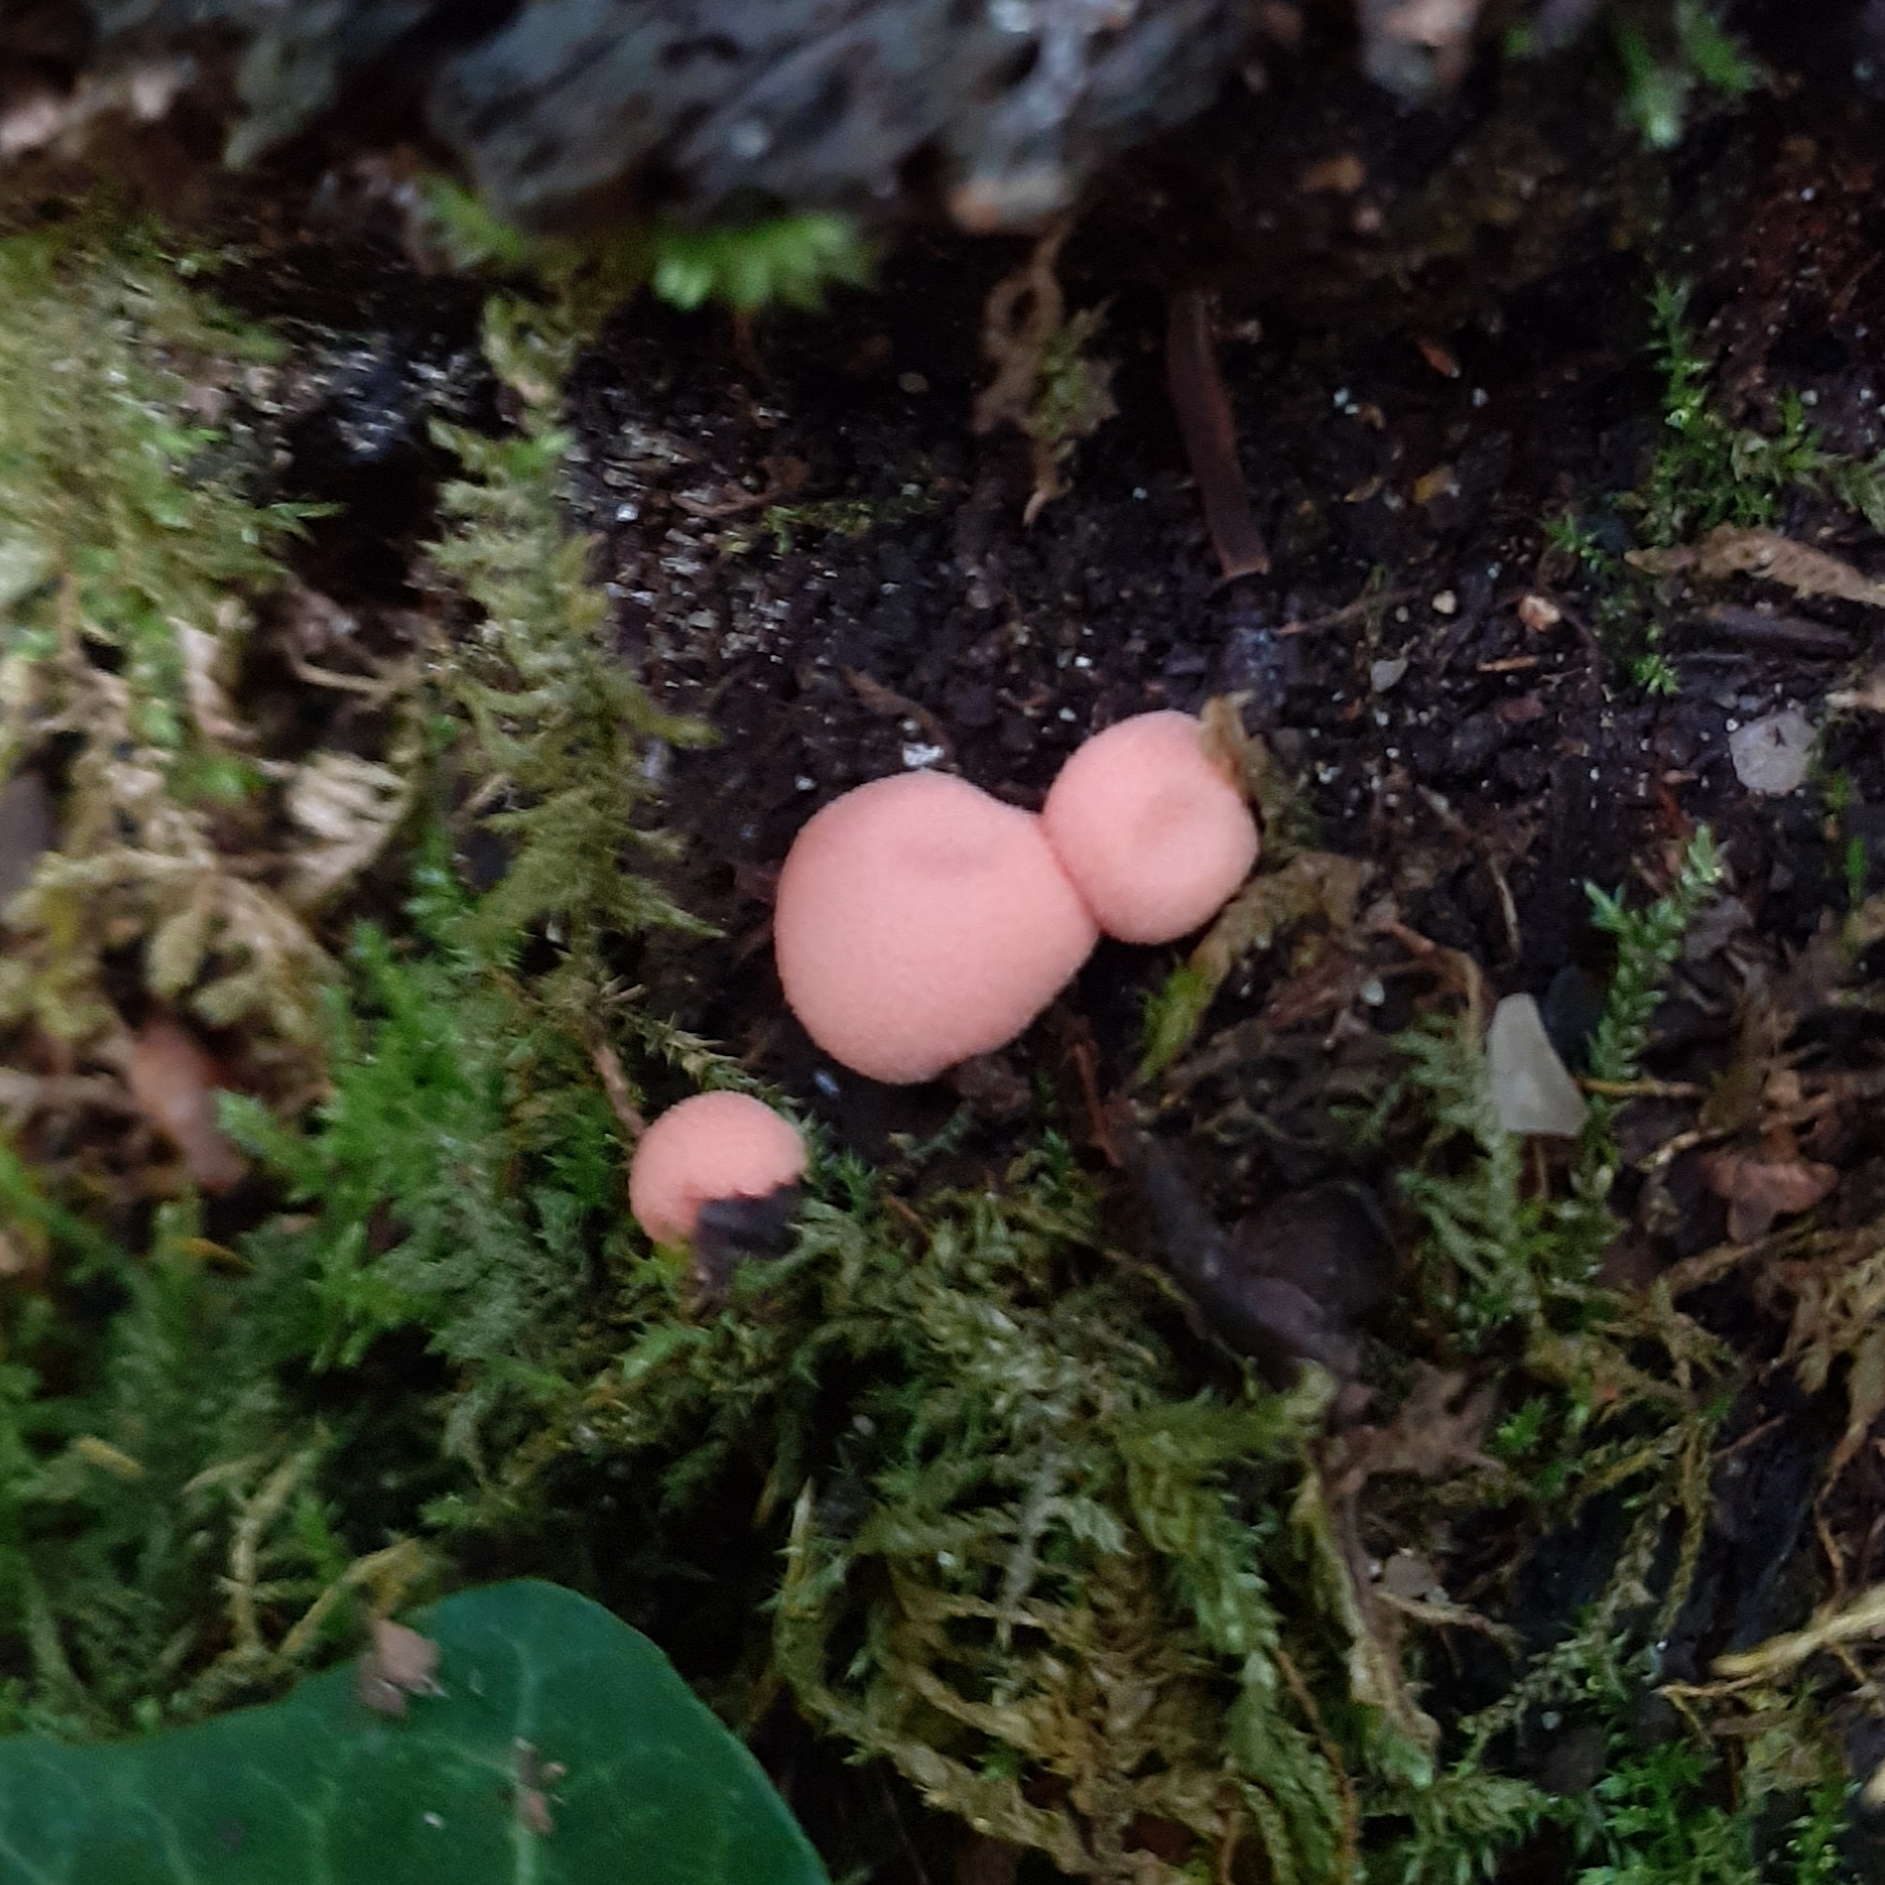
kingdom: Protozoa
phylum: Mycetozoa
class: Myxomycetes
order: Cribrariales
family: Tubiferaceae
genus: Lycogala
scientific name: Lycogala epidendrum
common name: Wolf's milk
